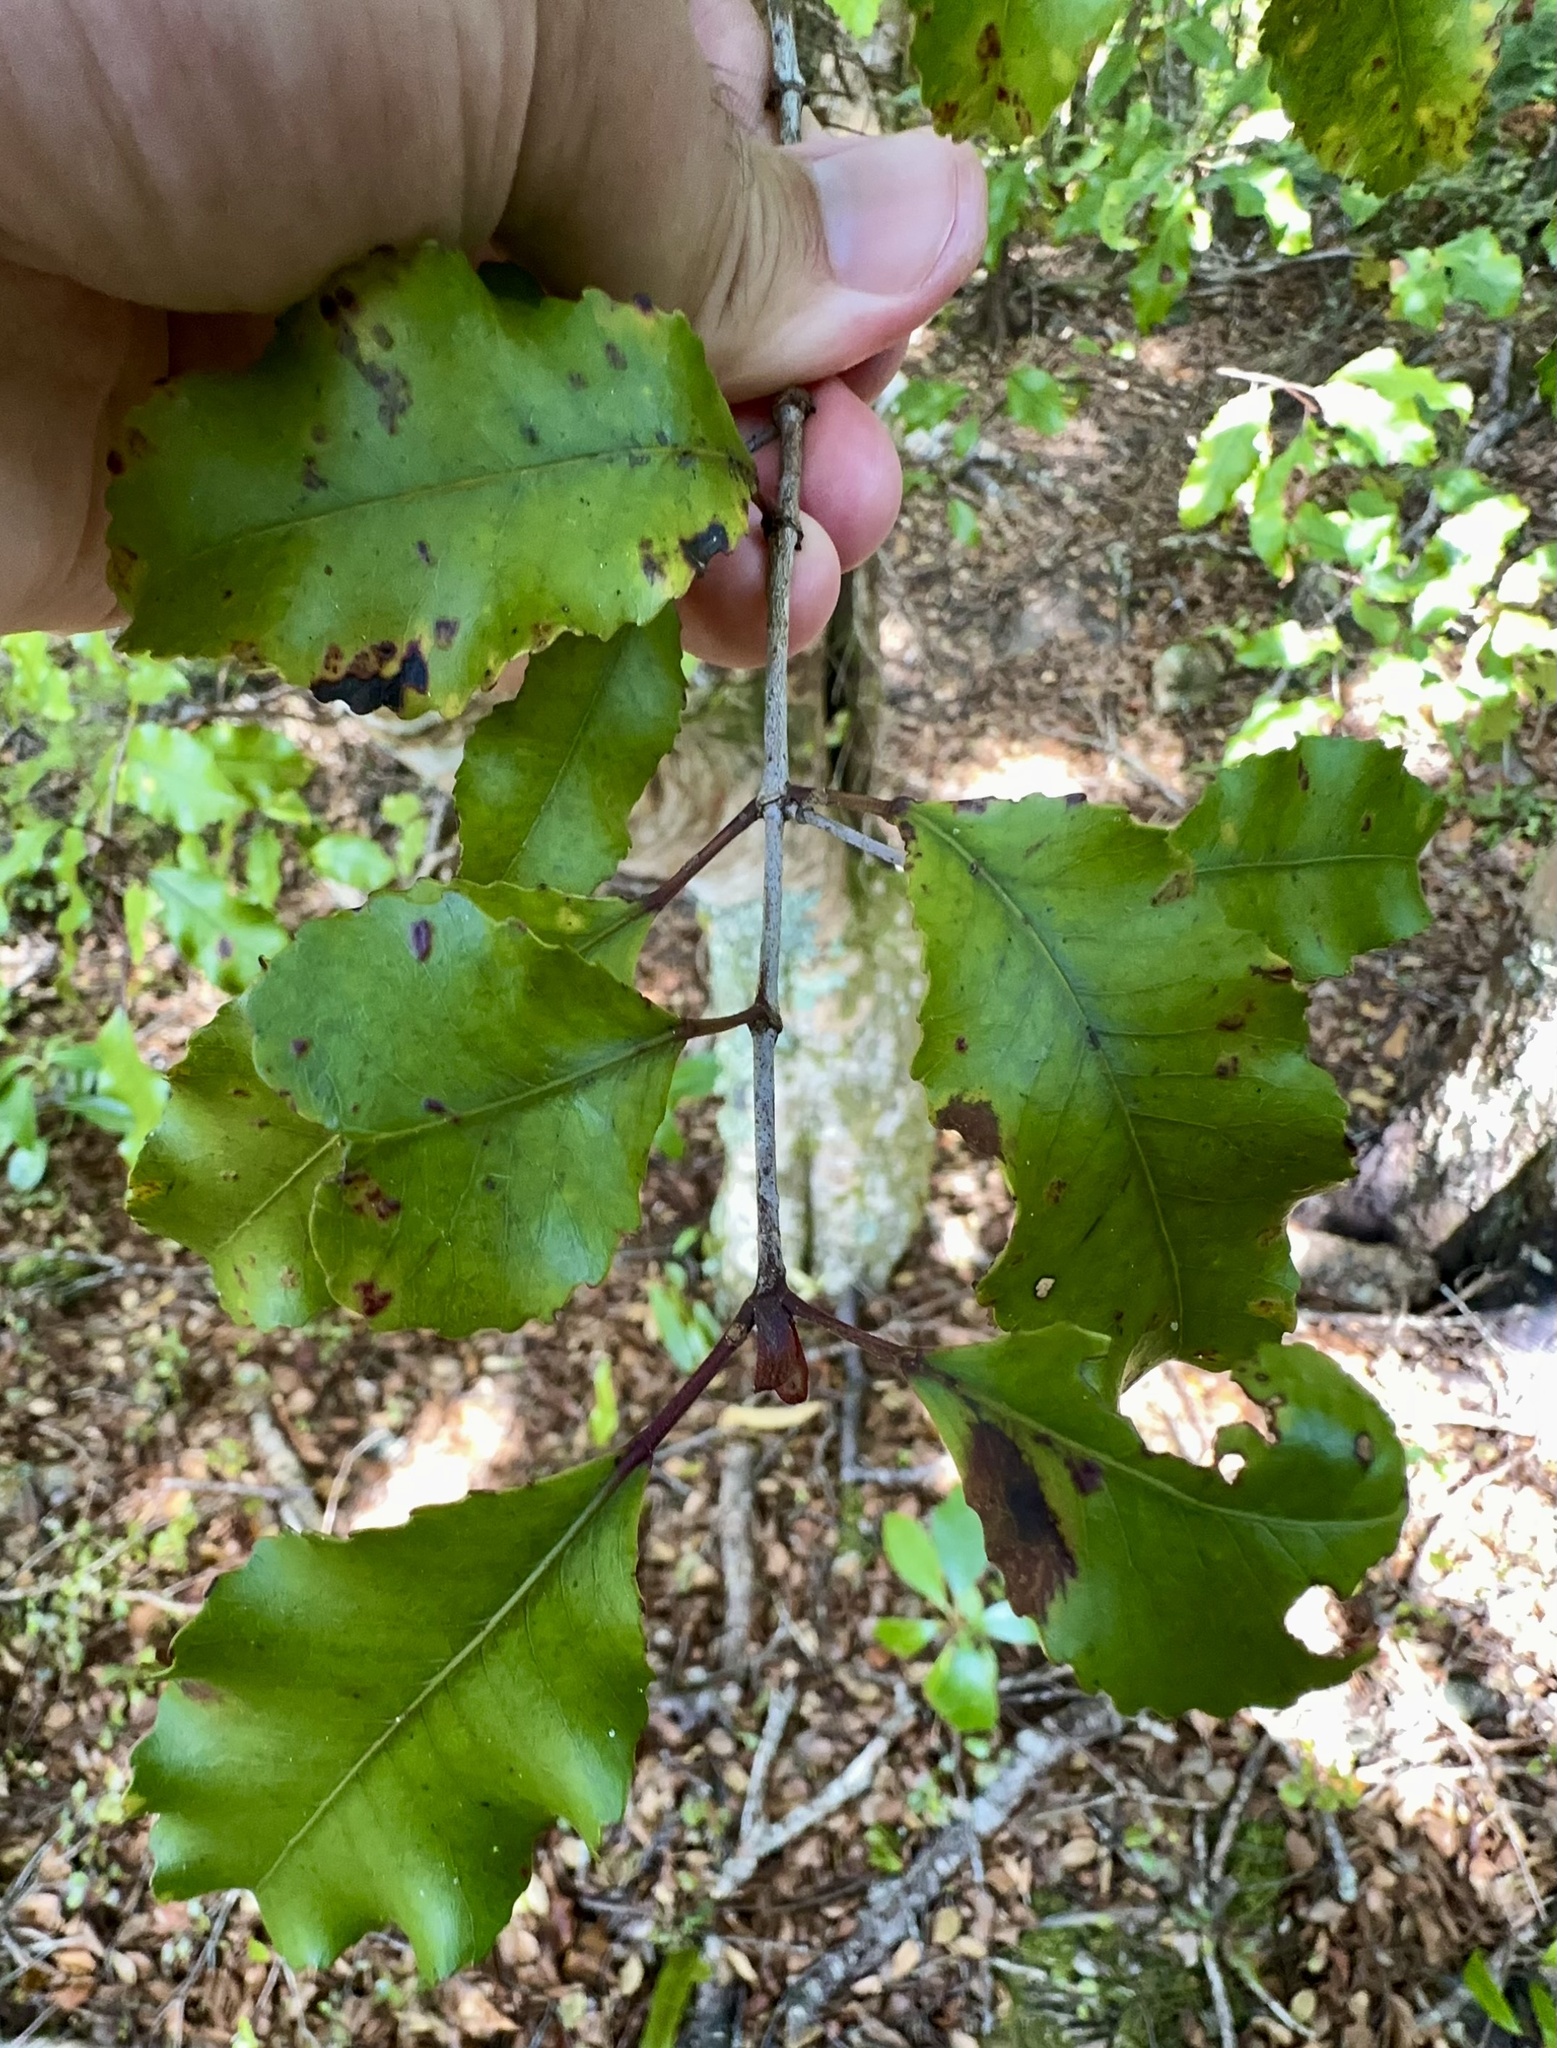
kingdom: Plantae
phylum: Tracheophyta
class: Magnoliopsida
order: Oxalidales
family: Cunoniaceae
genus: Pterophylla
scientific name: Pterophylla racemosa
